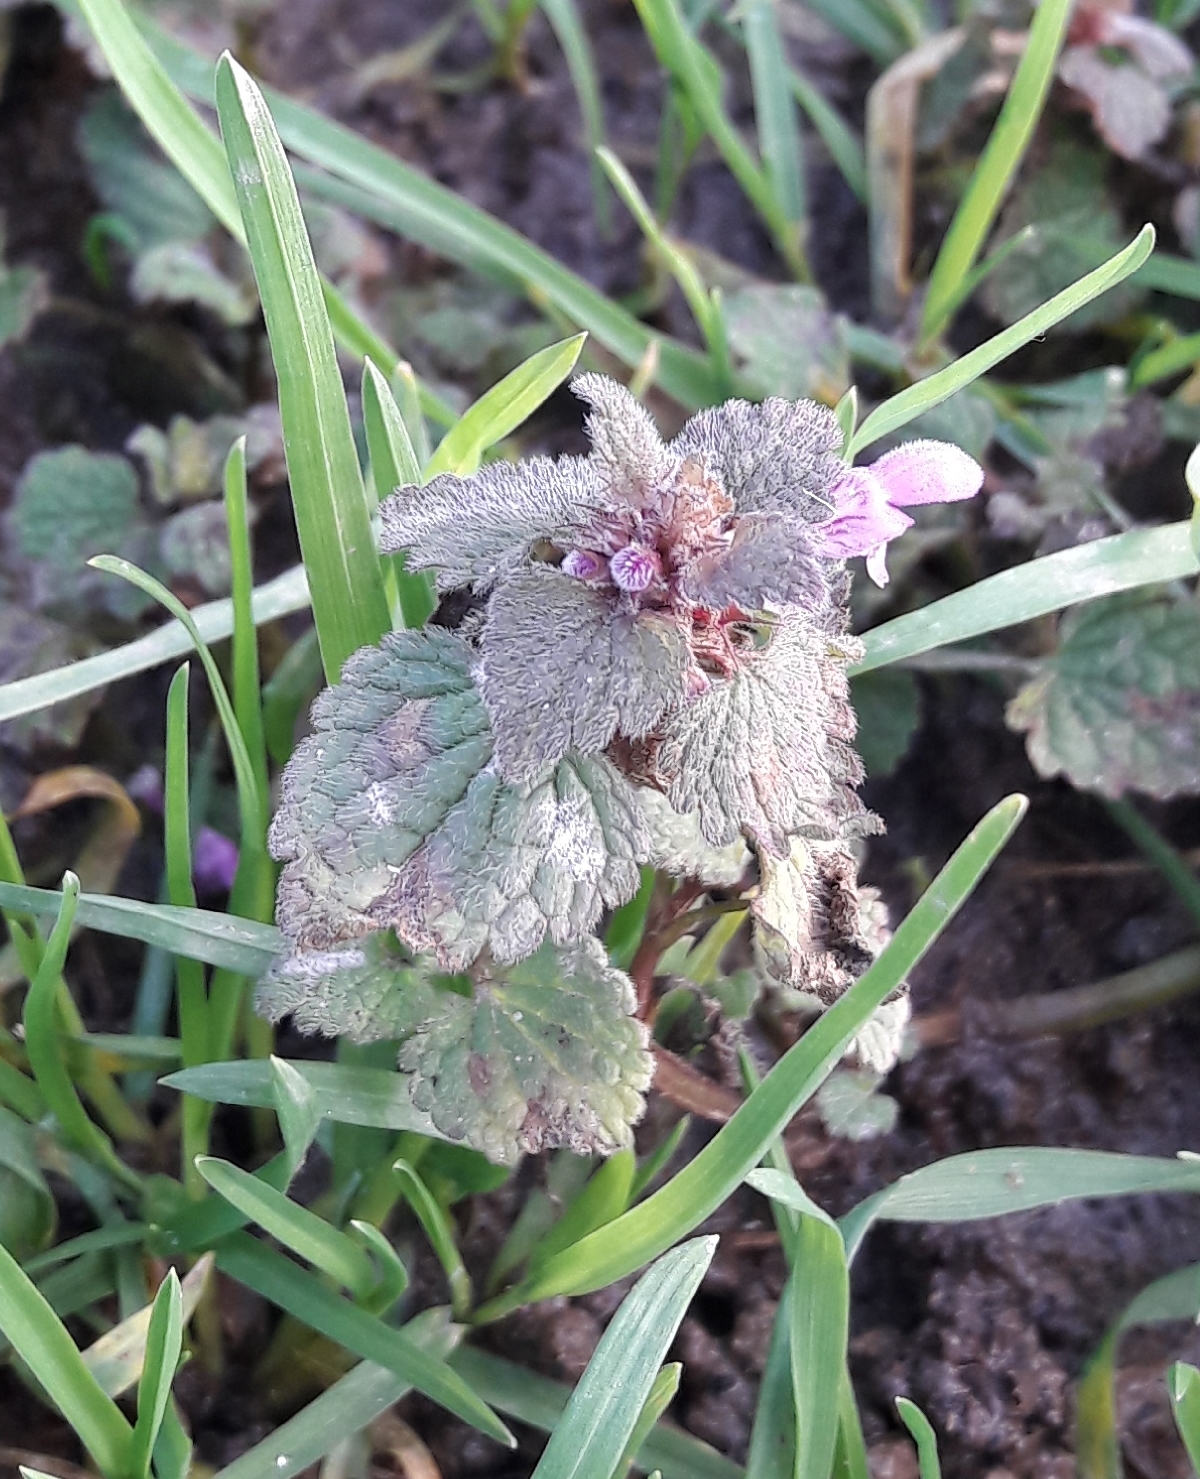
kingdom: Plantae
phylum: Tracheophyta
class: Magnoliopsida
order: Lamiales
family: Lamiaceae
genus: Lamium
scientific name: Lamium purpureum
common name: Red dead-nettle
